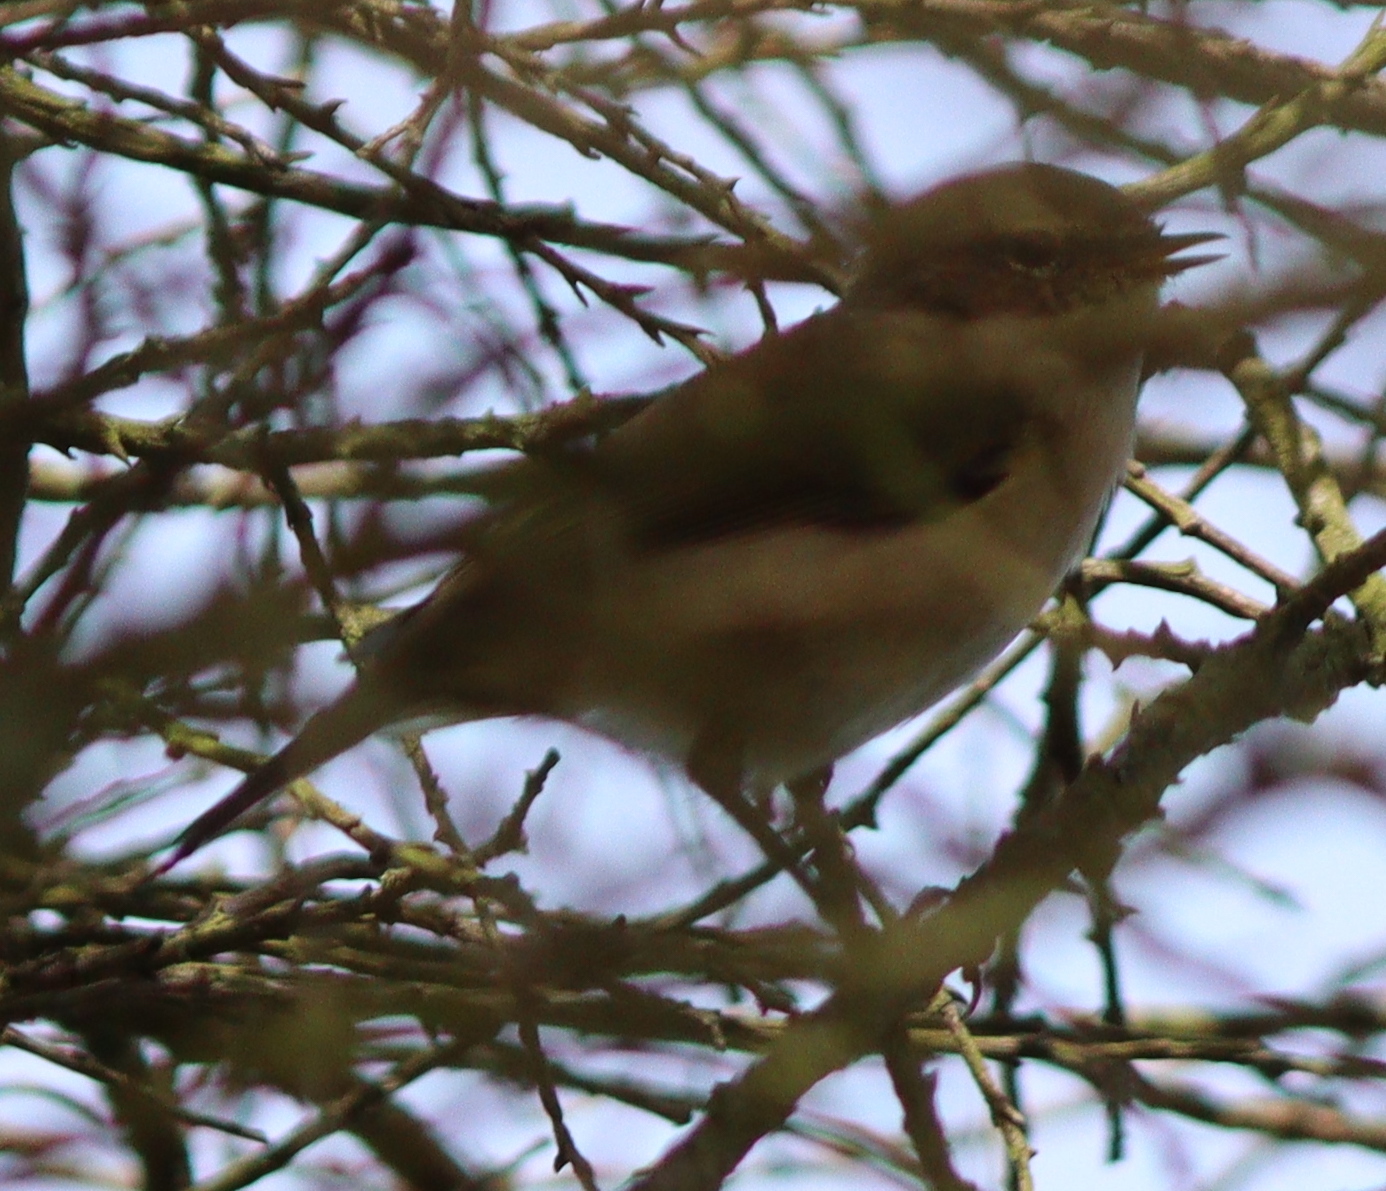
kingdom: Animalia
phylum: Chordata
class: Aves
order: Passeriformes
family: Phylloscopidae
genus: Phylloscopus
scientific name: Phylloscopus collybita
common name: Common chiffchaff
